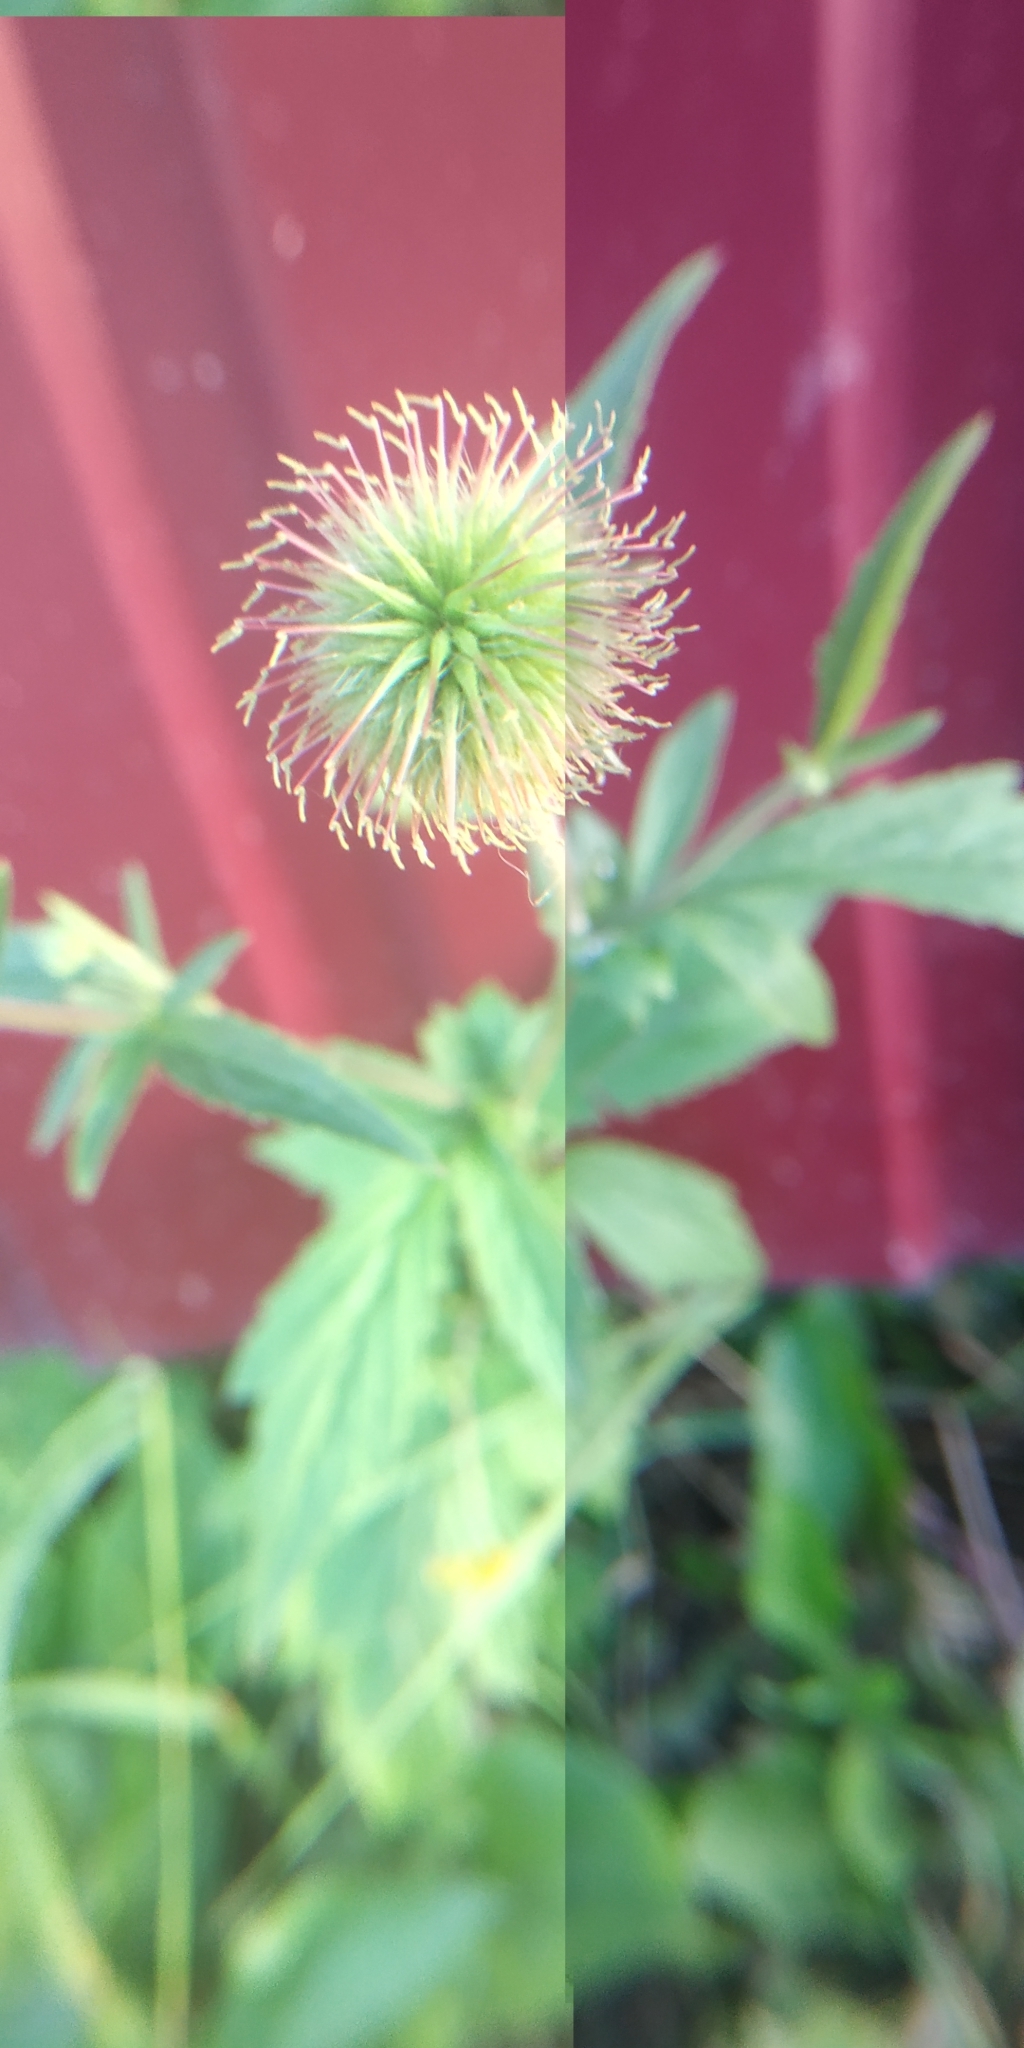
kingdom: Plantae
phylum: Tracheophyta
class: Magnoliopsida
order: Rosales
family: Rosaceae
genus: Geum
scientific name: Geum aleppicum
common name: Yellow avens
